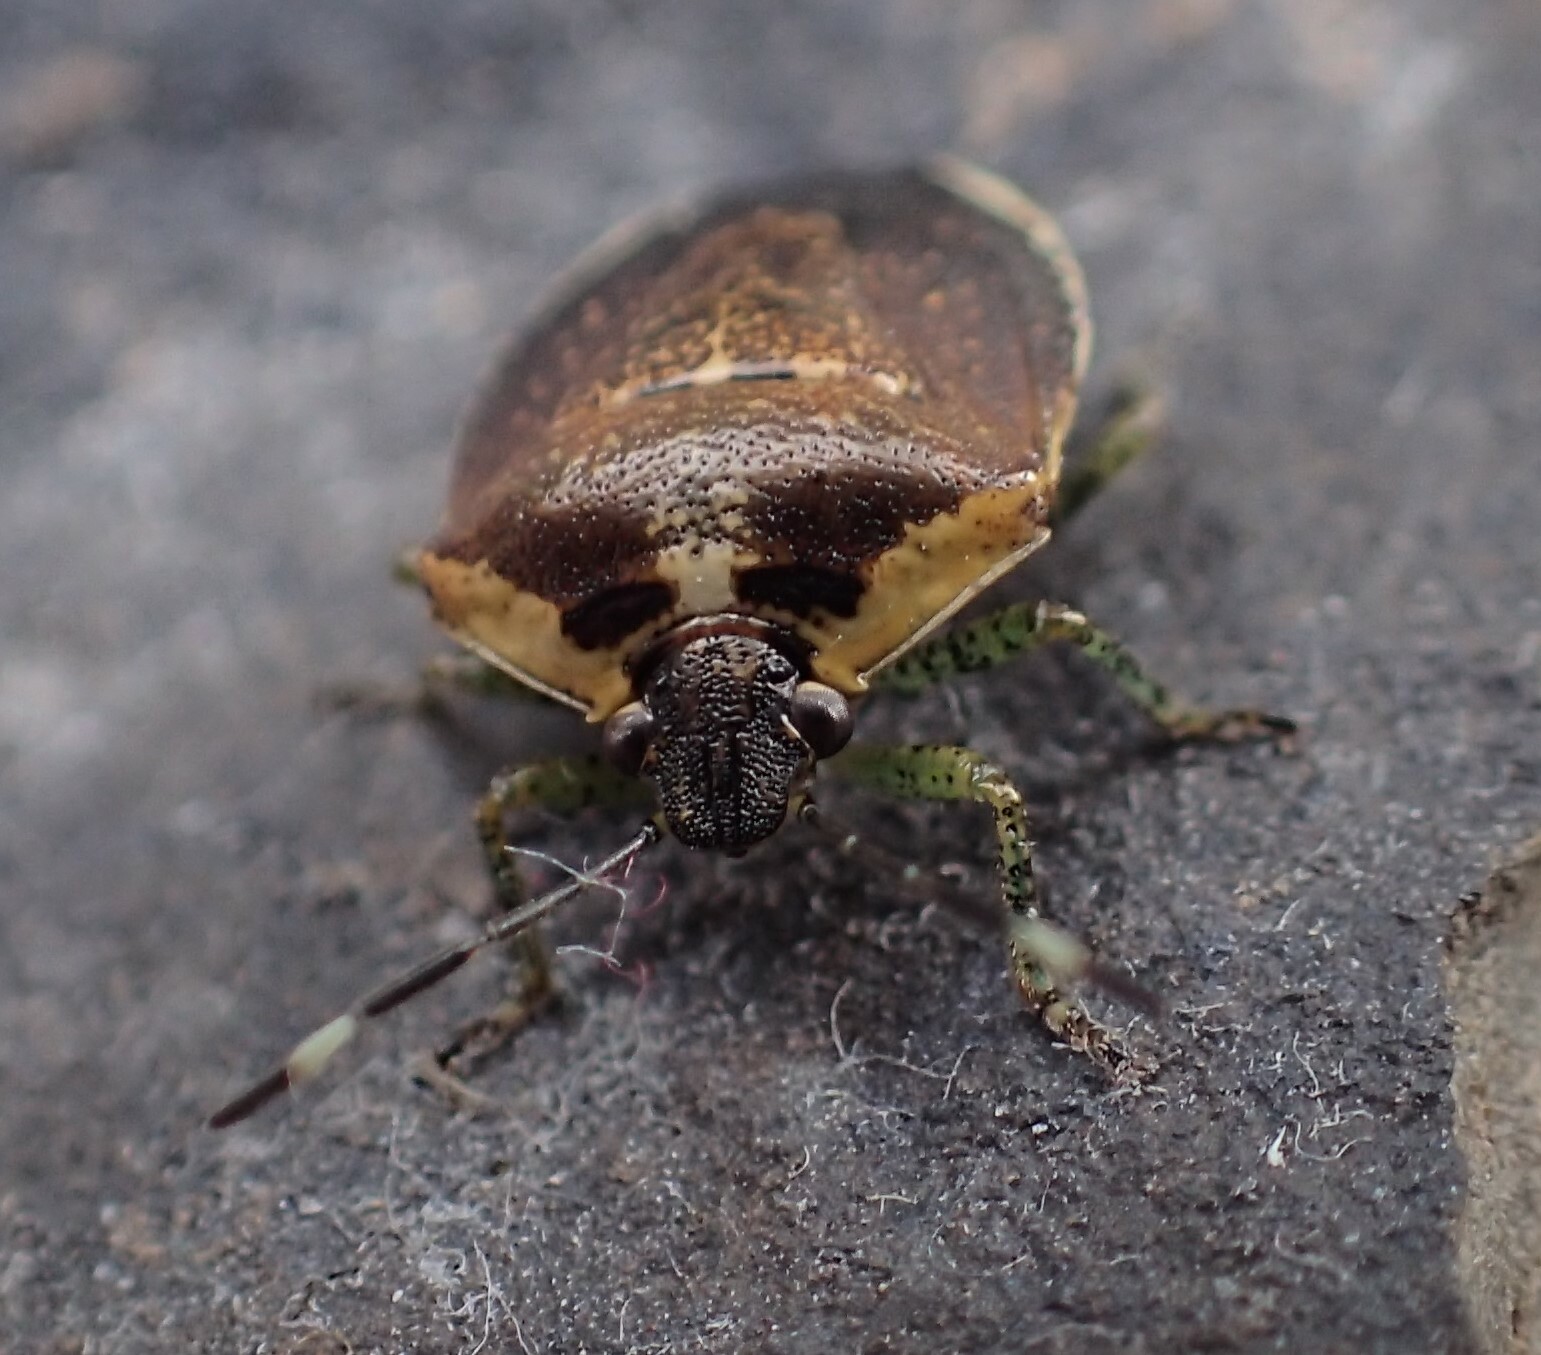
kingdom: Animalia
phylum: Arthropoda
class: Insecta
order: Hemiptera
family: Pentatomidae
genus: Monteithiella
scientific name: Monteithiella
